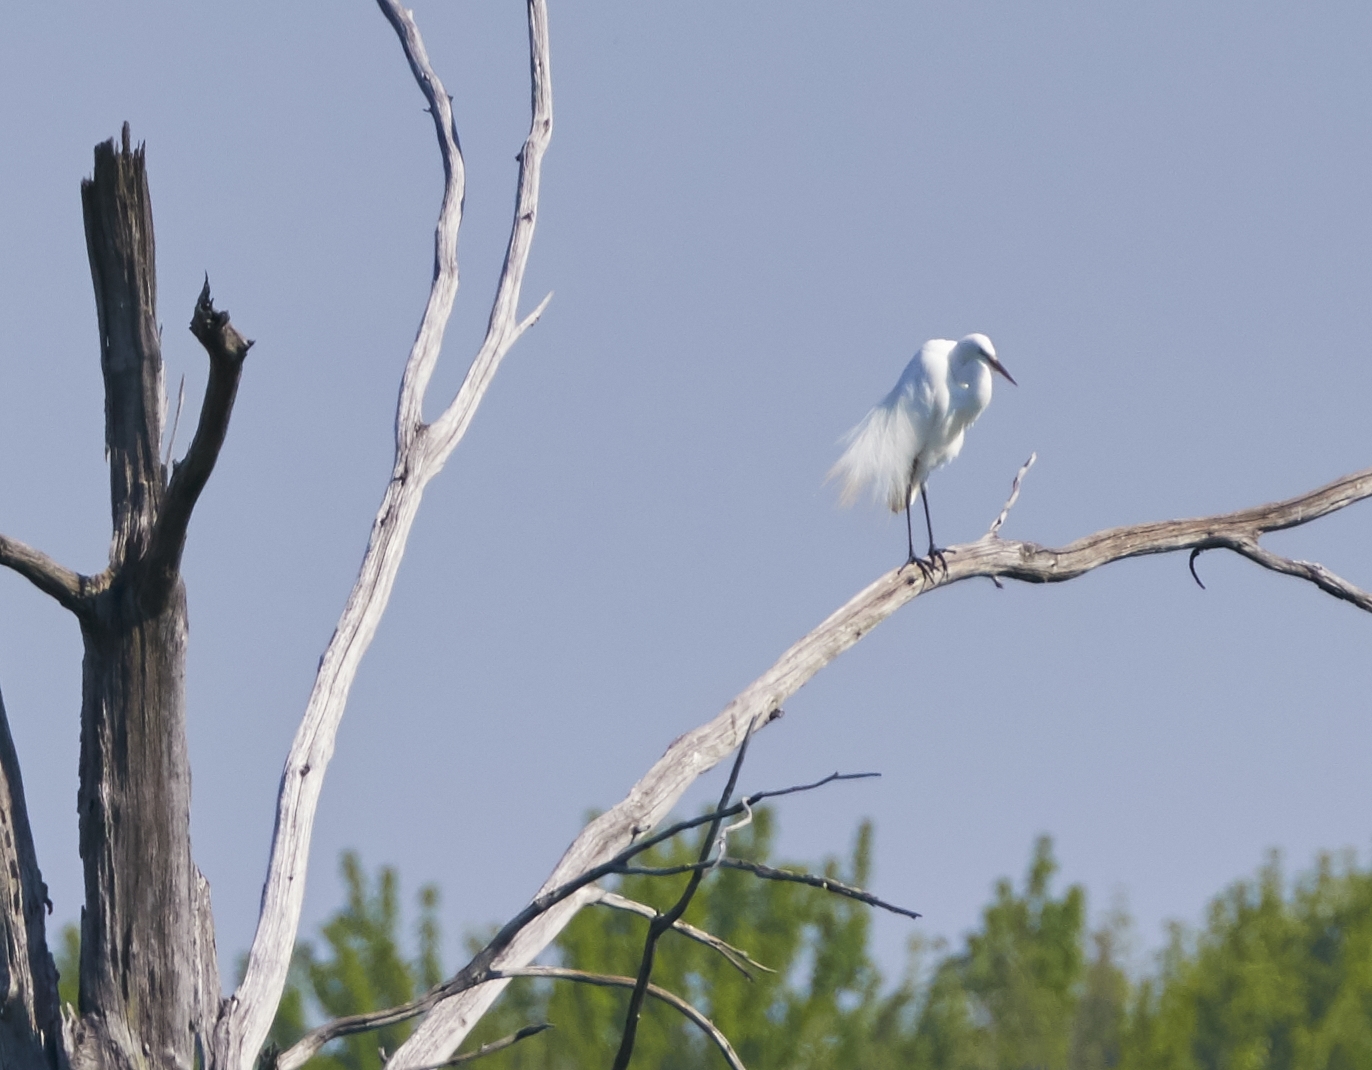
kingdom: Animalia
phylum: Chordata
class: Aves
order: Pelecaniformes
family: Ardeidae
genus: Ardea
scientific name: Ardea alba
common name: Great egret
